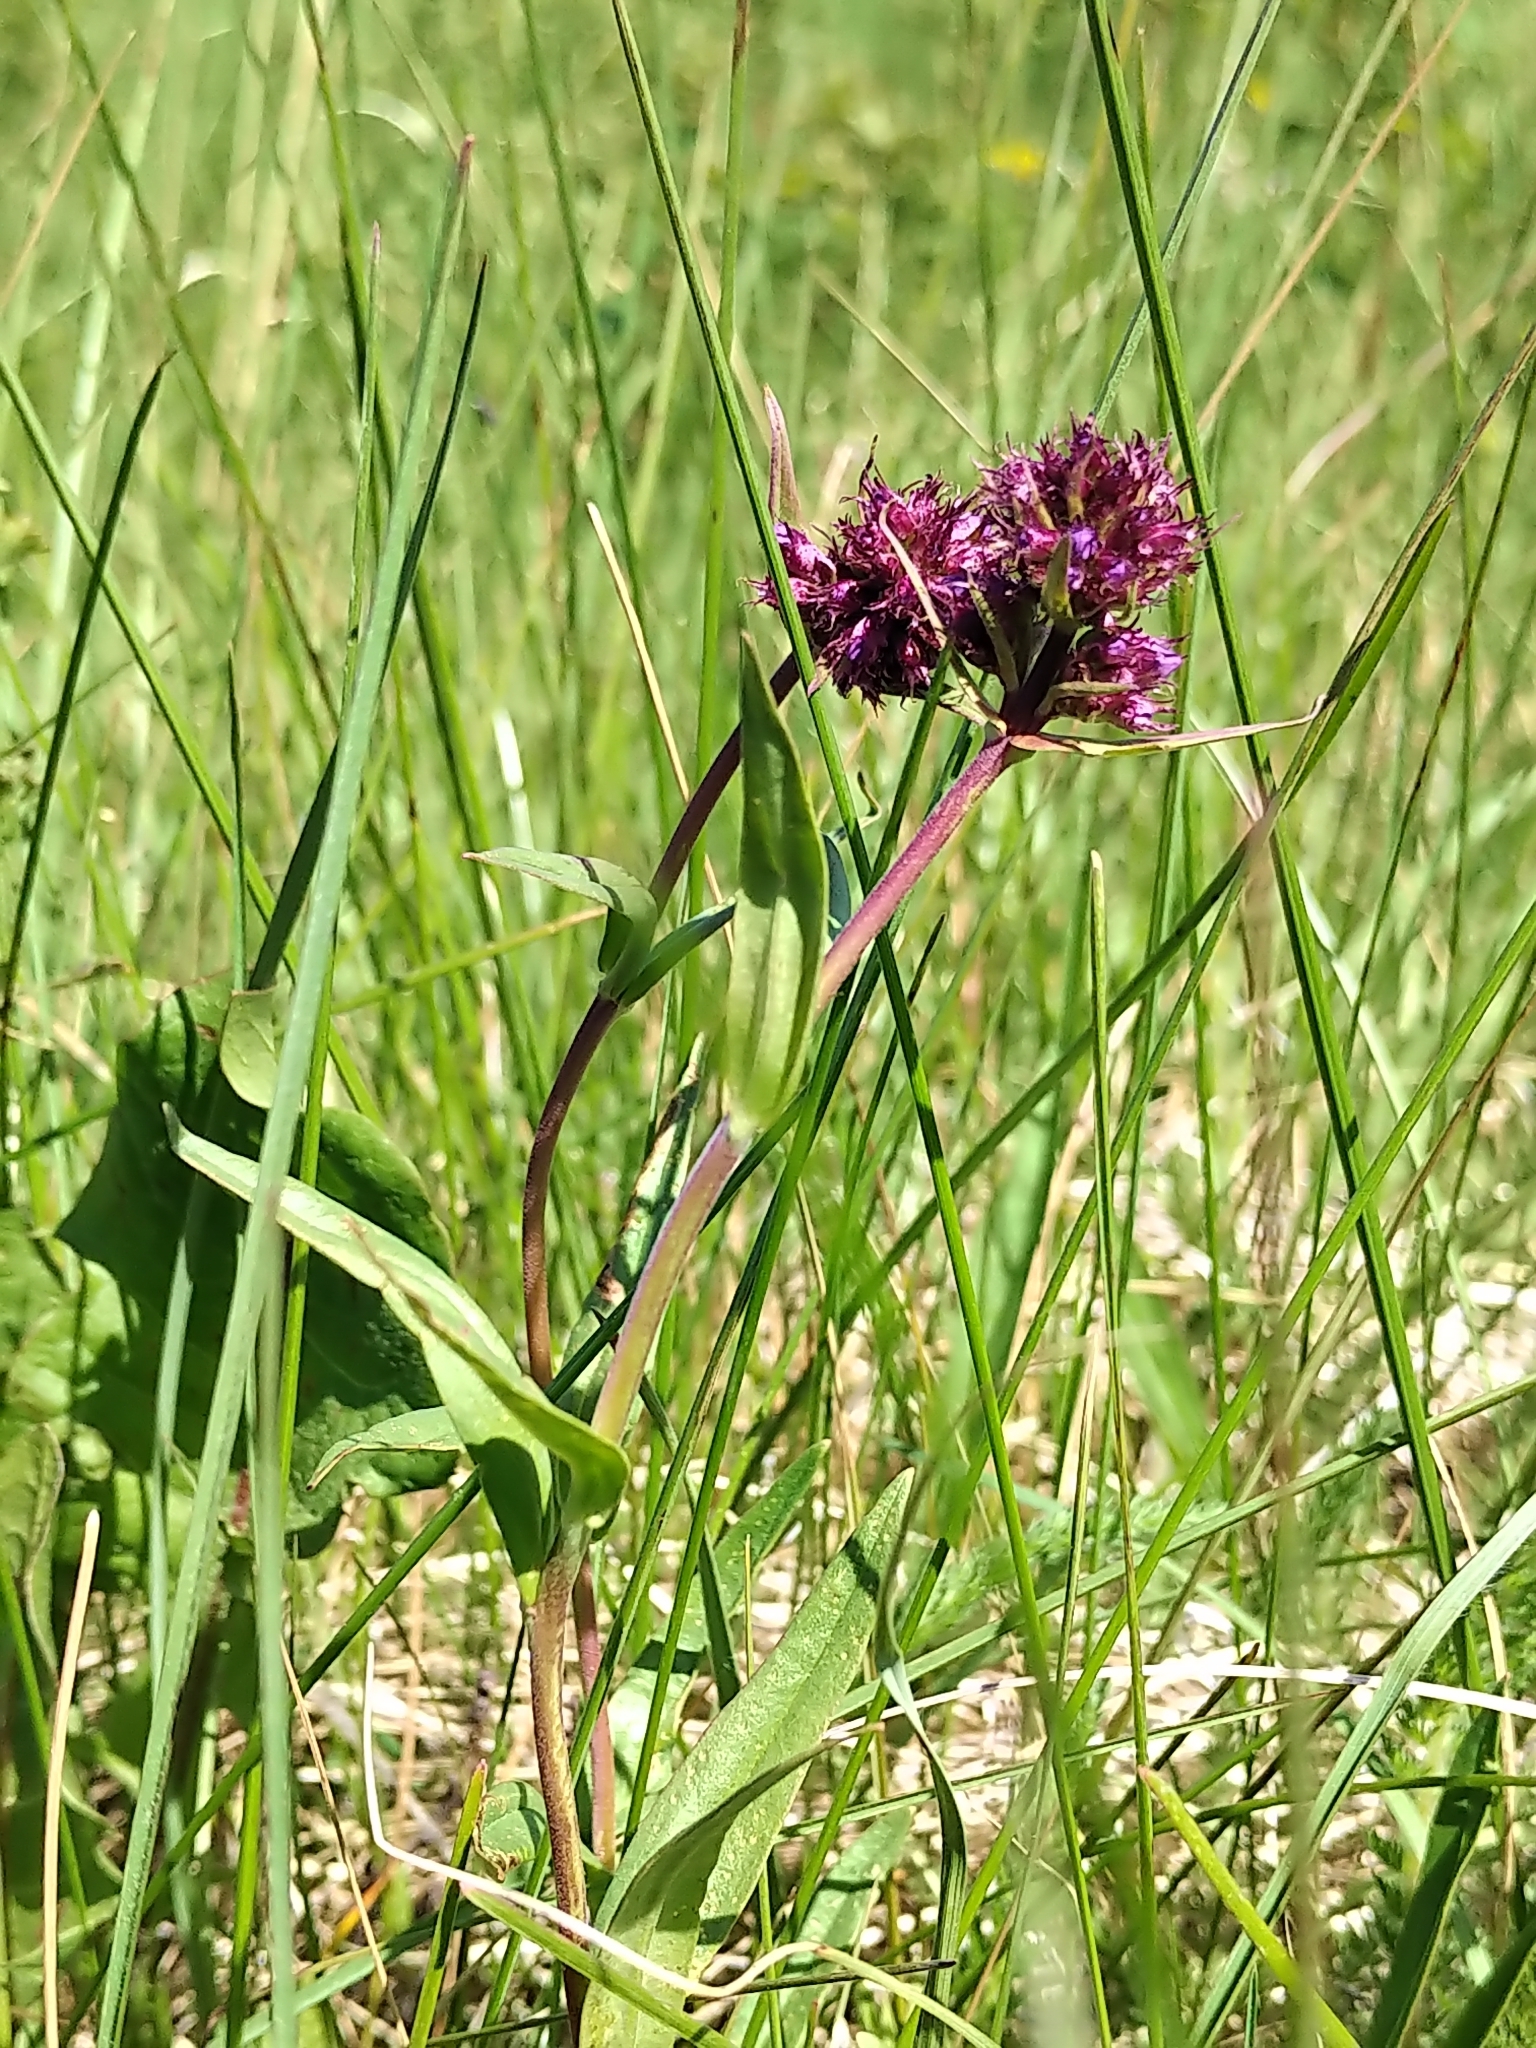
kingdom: Plantae
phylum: Tracheophyta
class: Magnoliopsida
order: Lamiales
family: Plantaginaceae
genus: Penstemon
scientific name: Penstemon procerus
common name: Small-flower penstemon
